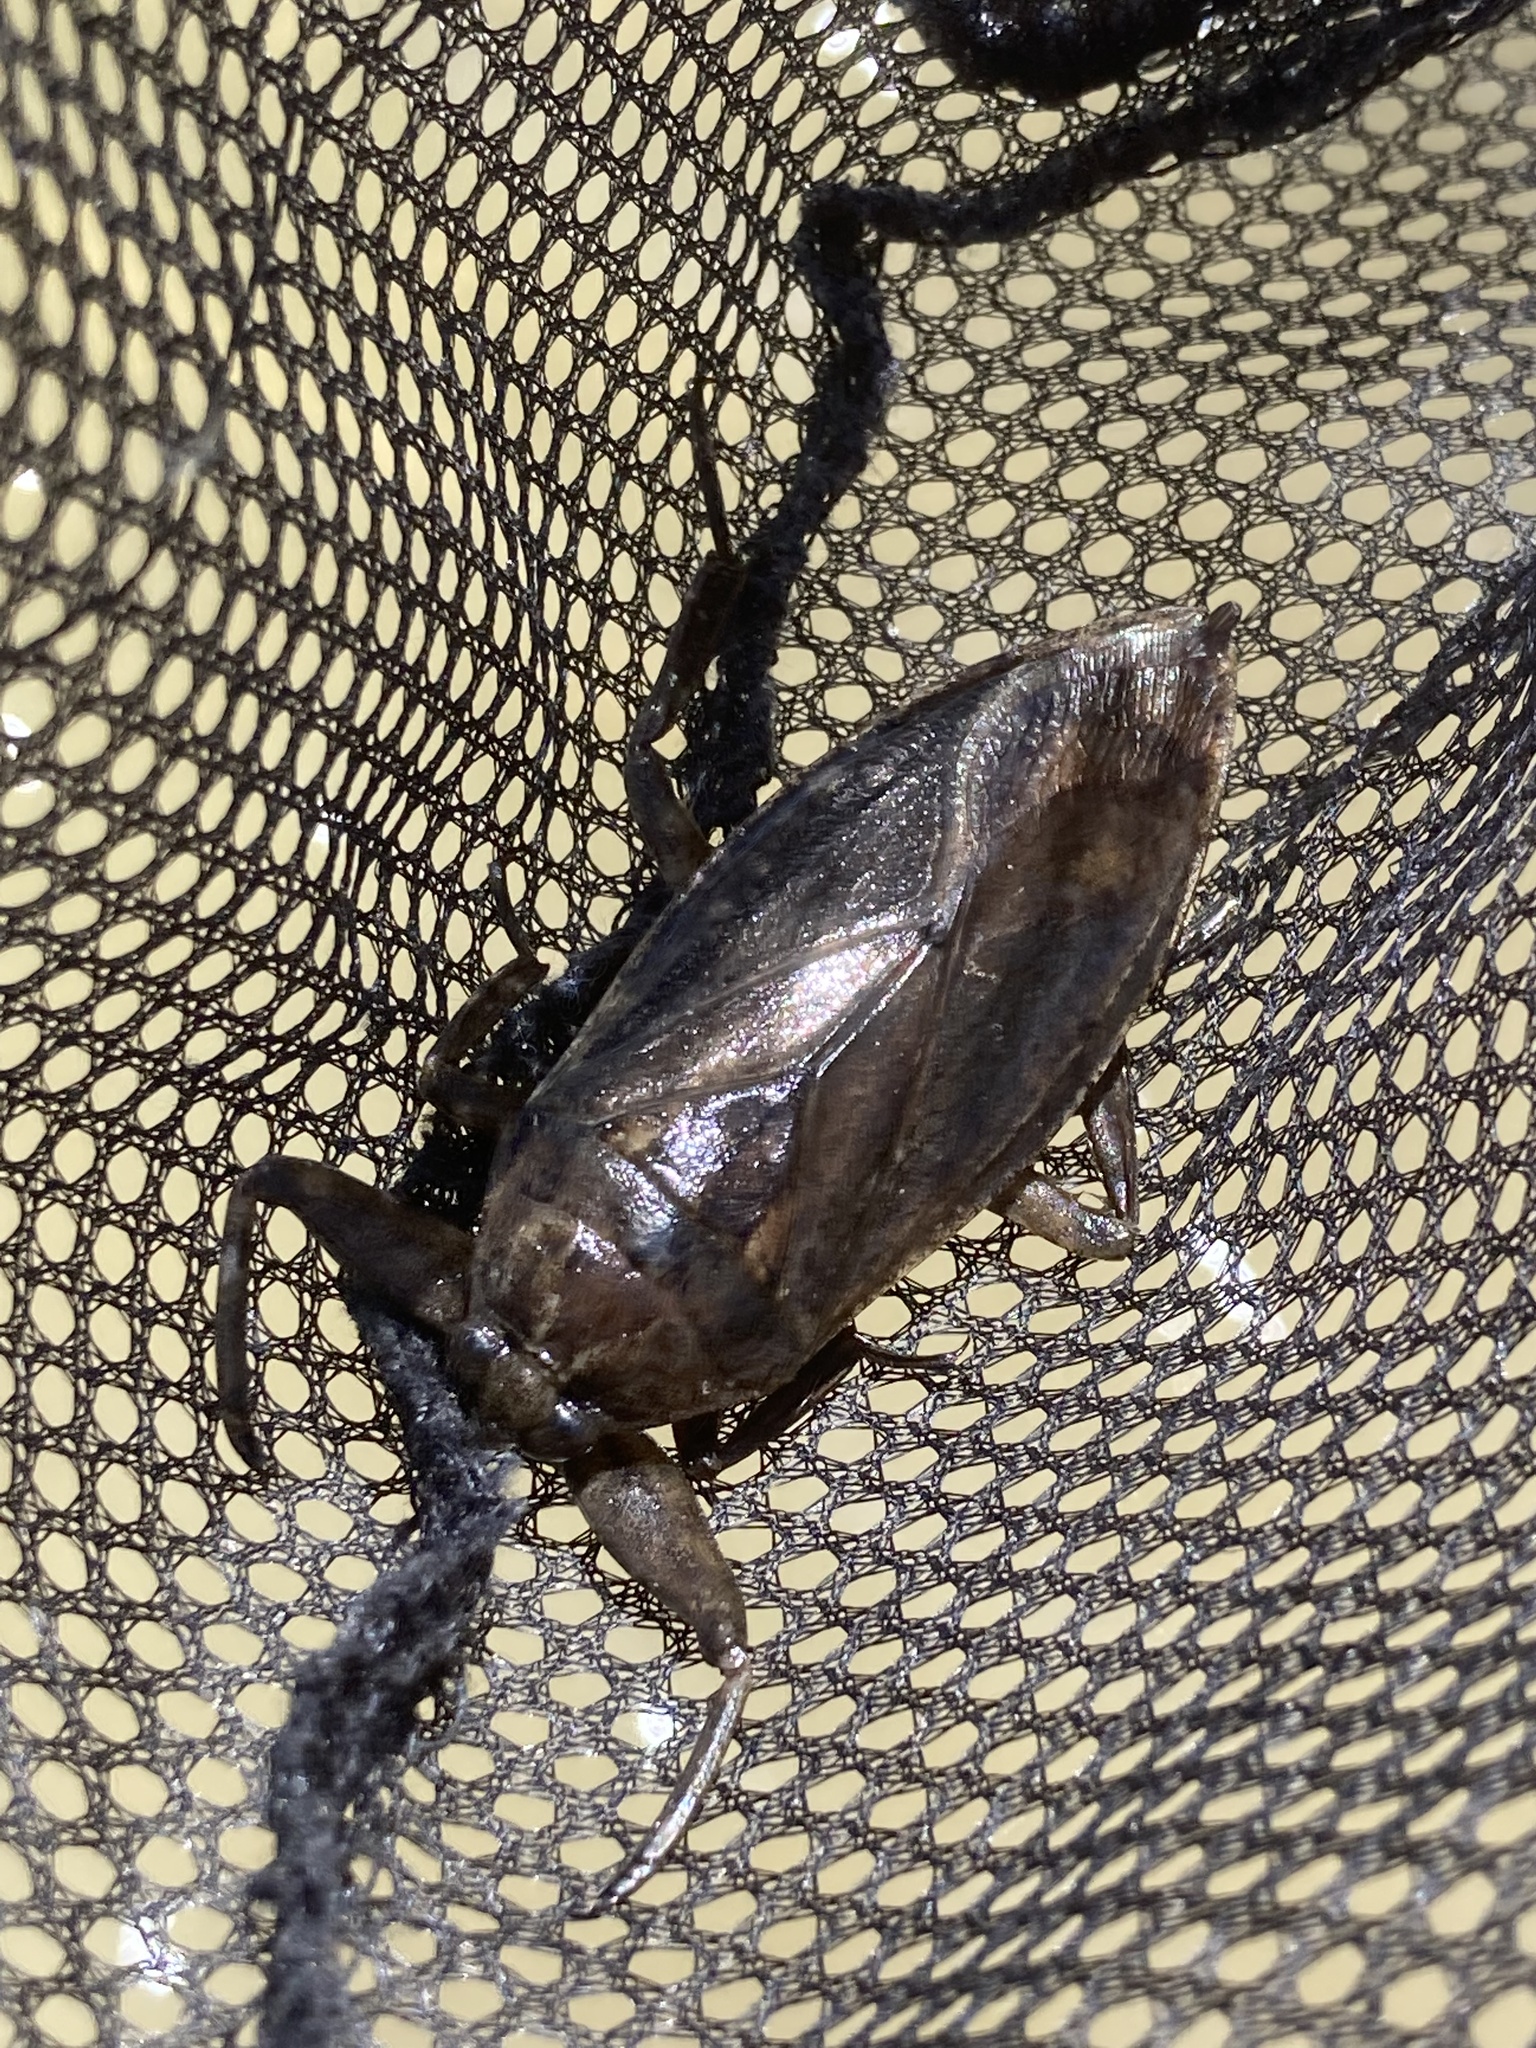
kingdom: Animalia
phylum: Arthropoda
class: Insecta
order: Hemiptera
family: Belostomatidae
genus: Lethocerus
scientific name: Lethocerus americanus
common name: Giant water bug
